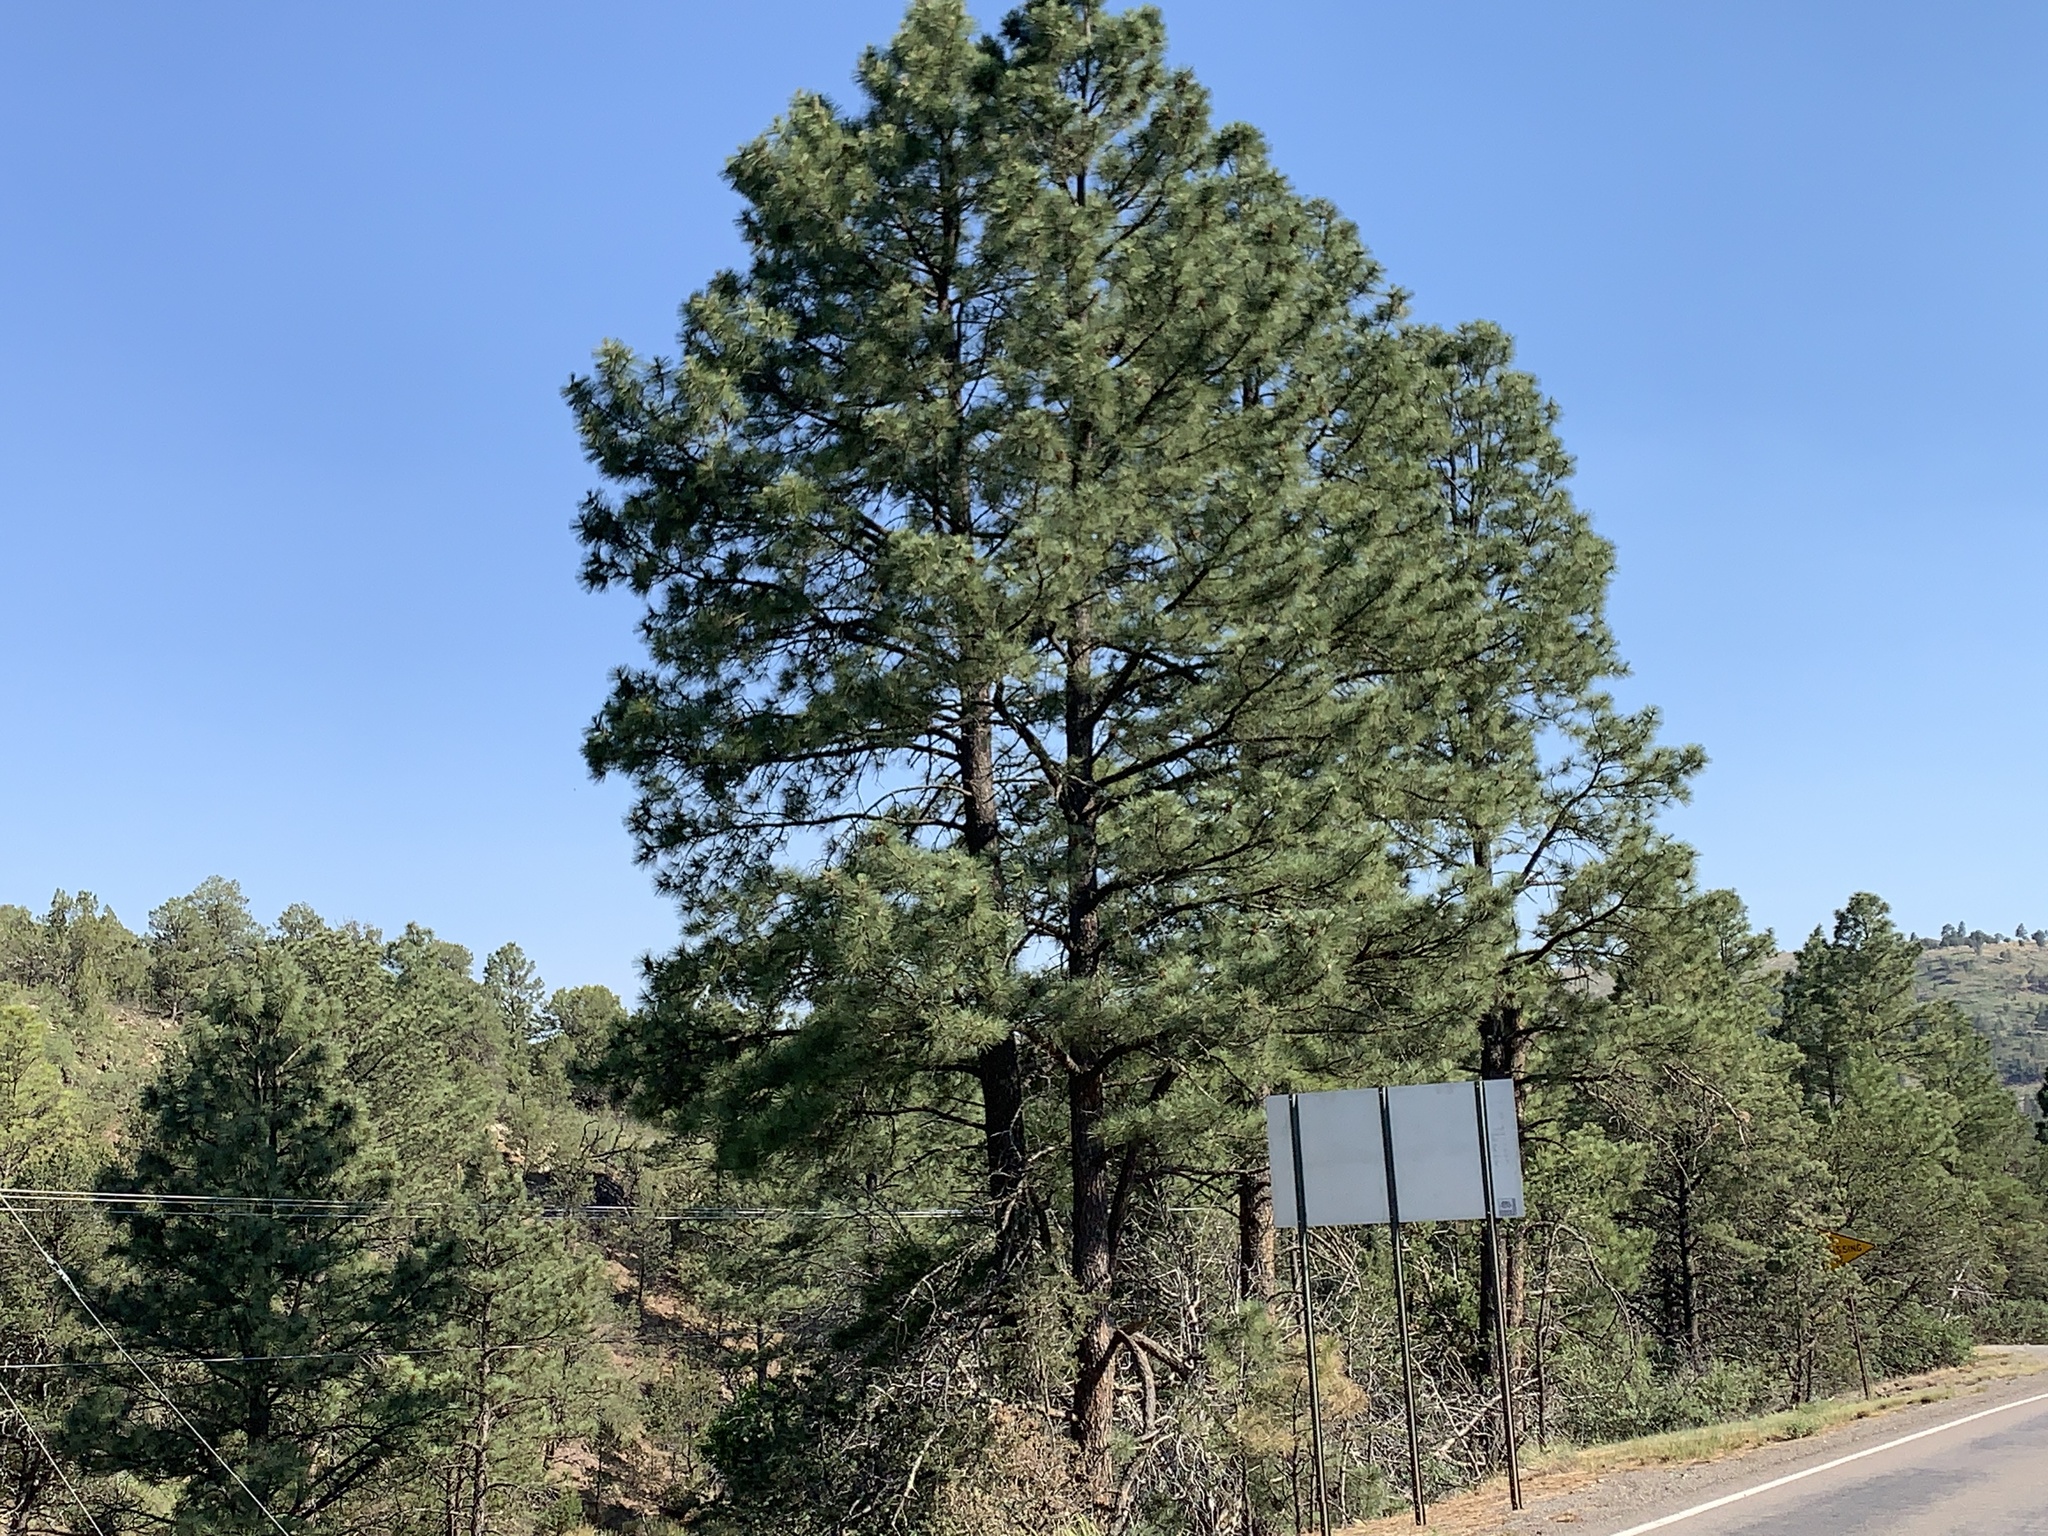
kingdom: Plantae
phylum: Tracheophyta
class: Pinopsida
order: Pinales
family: Pinaceae
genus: Pinus
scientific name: Pinus ponderosa
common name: Western yellow-pine
